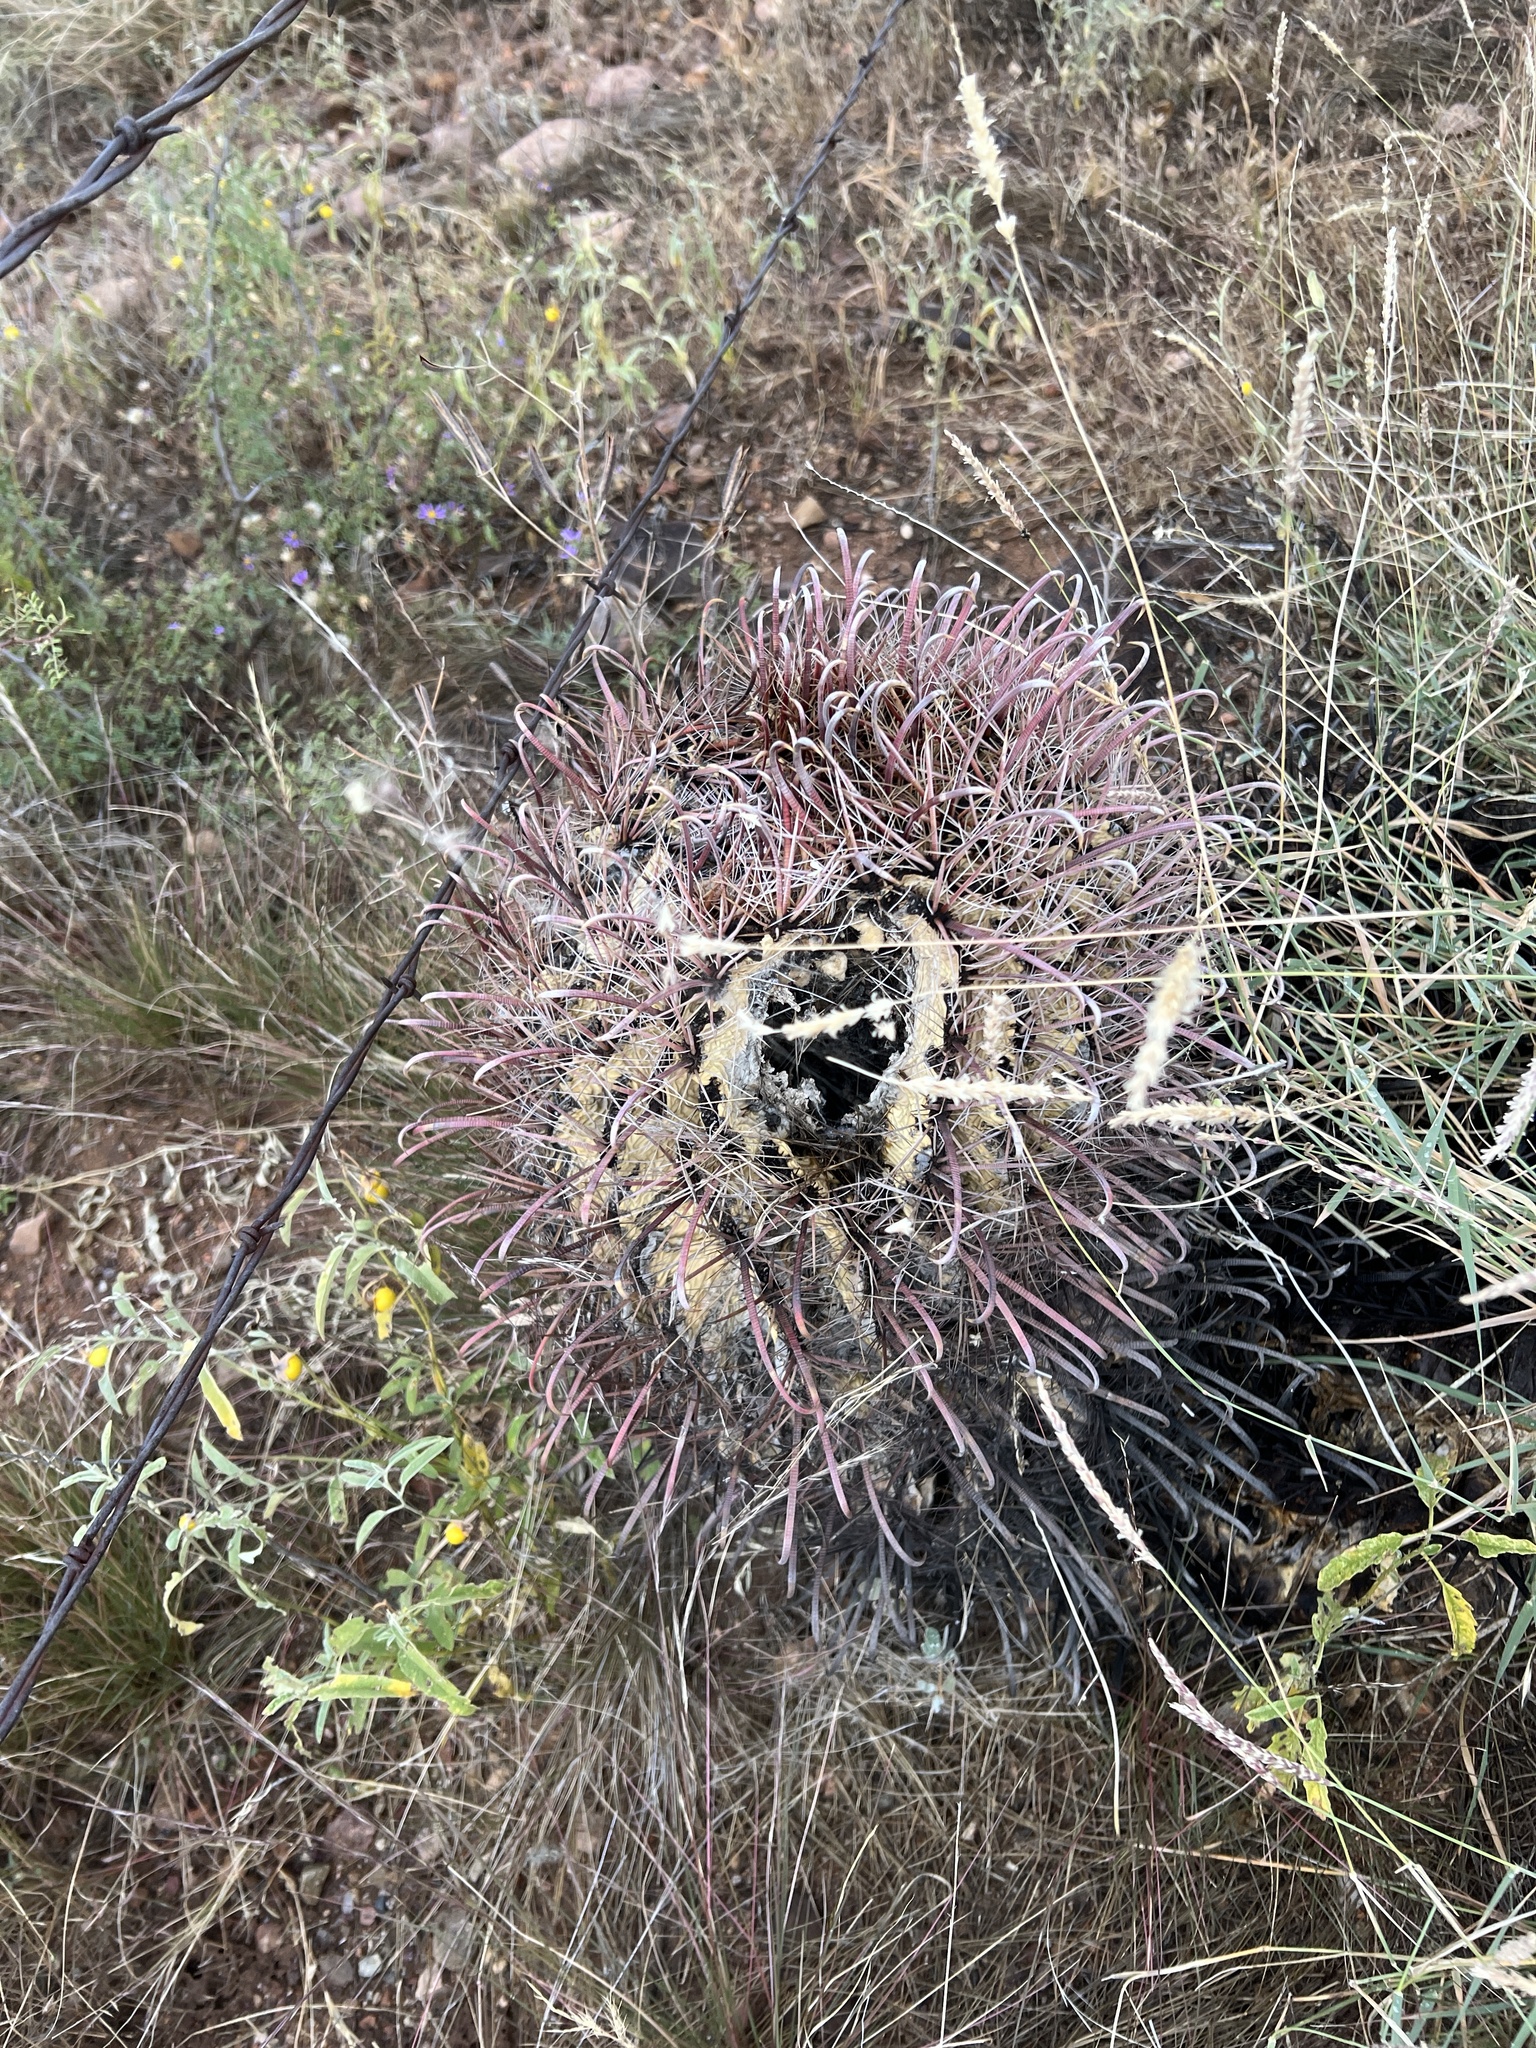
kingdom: Plantae
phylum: Tracheophyta
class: Magnoliopsida
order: Caryophyllales
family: Cactaceae
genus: Ferocactus
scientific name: Ferocactus wislizeni
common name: Candy barrel cactus
